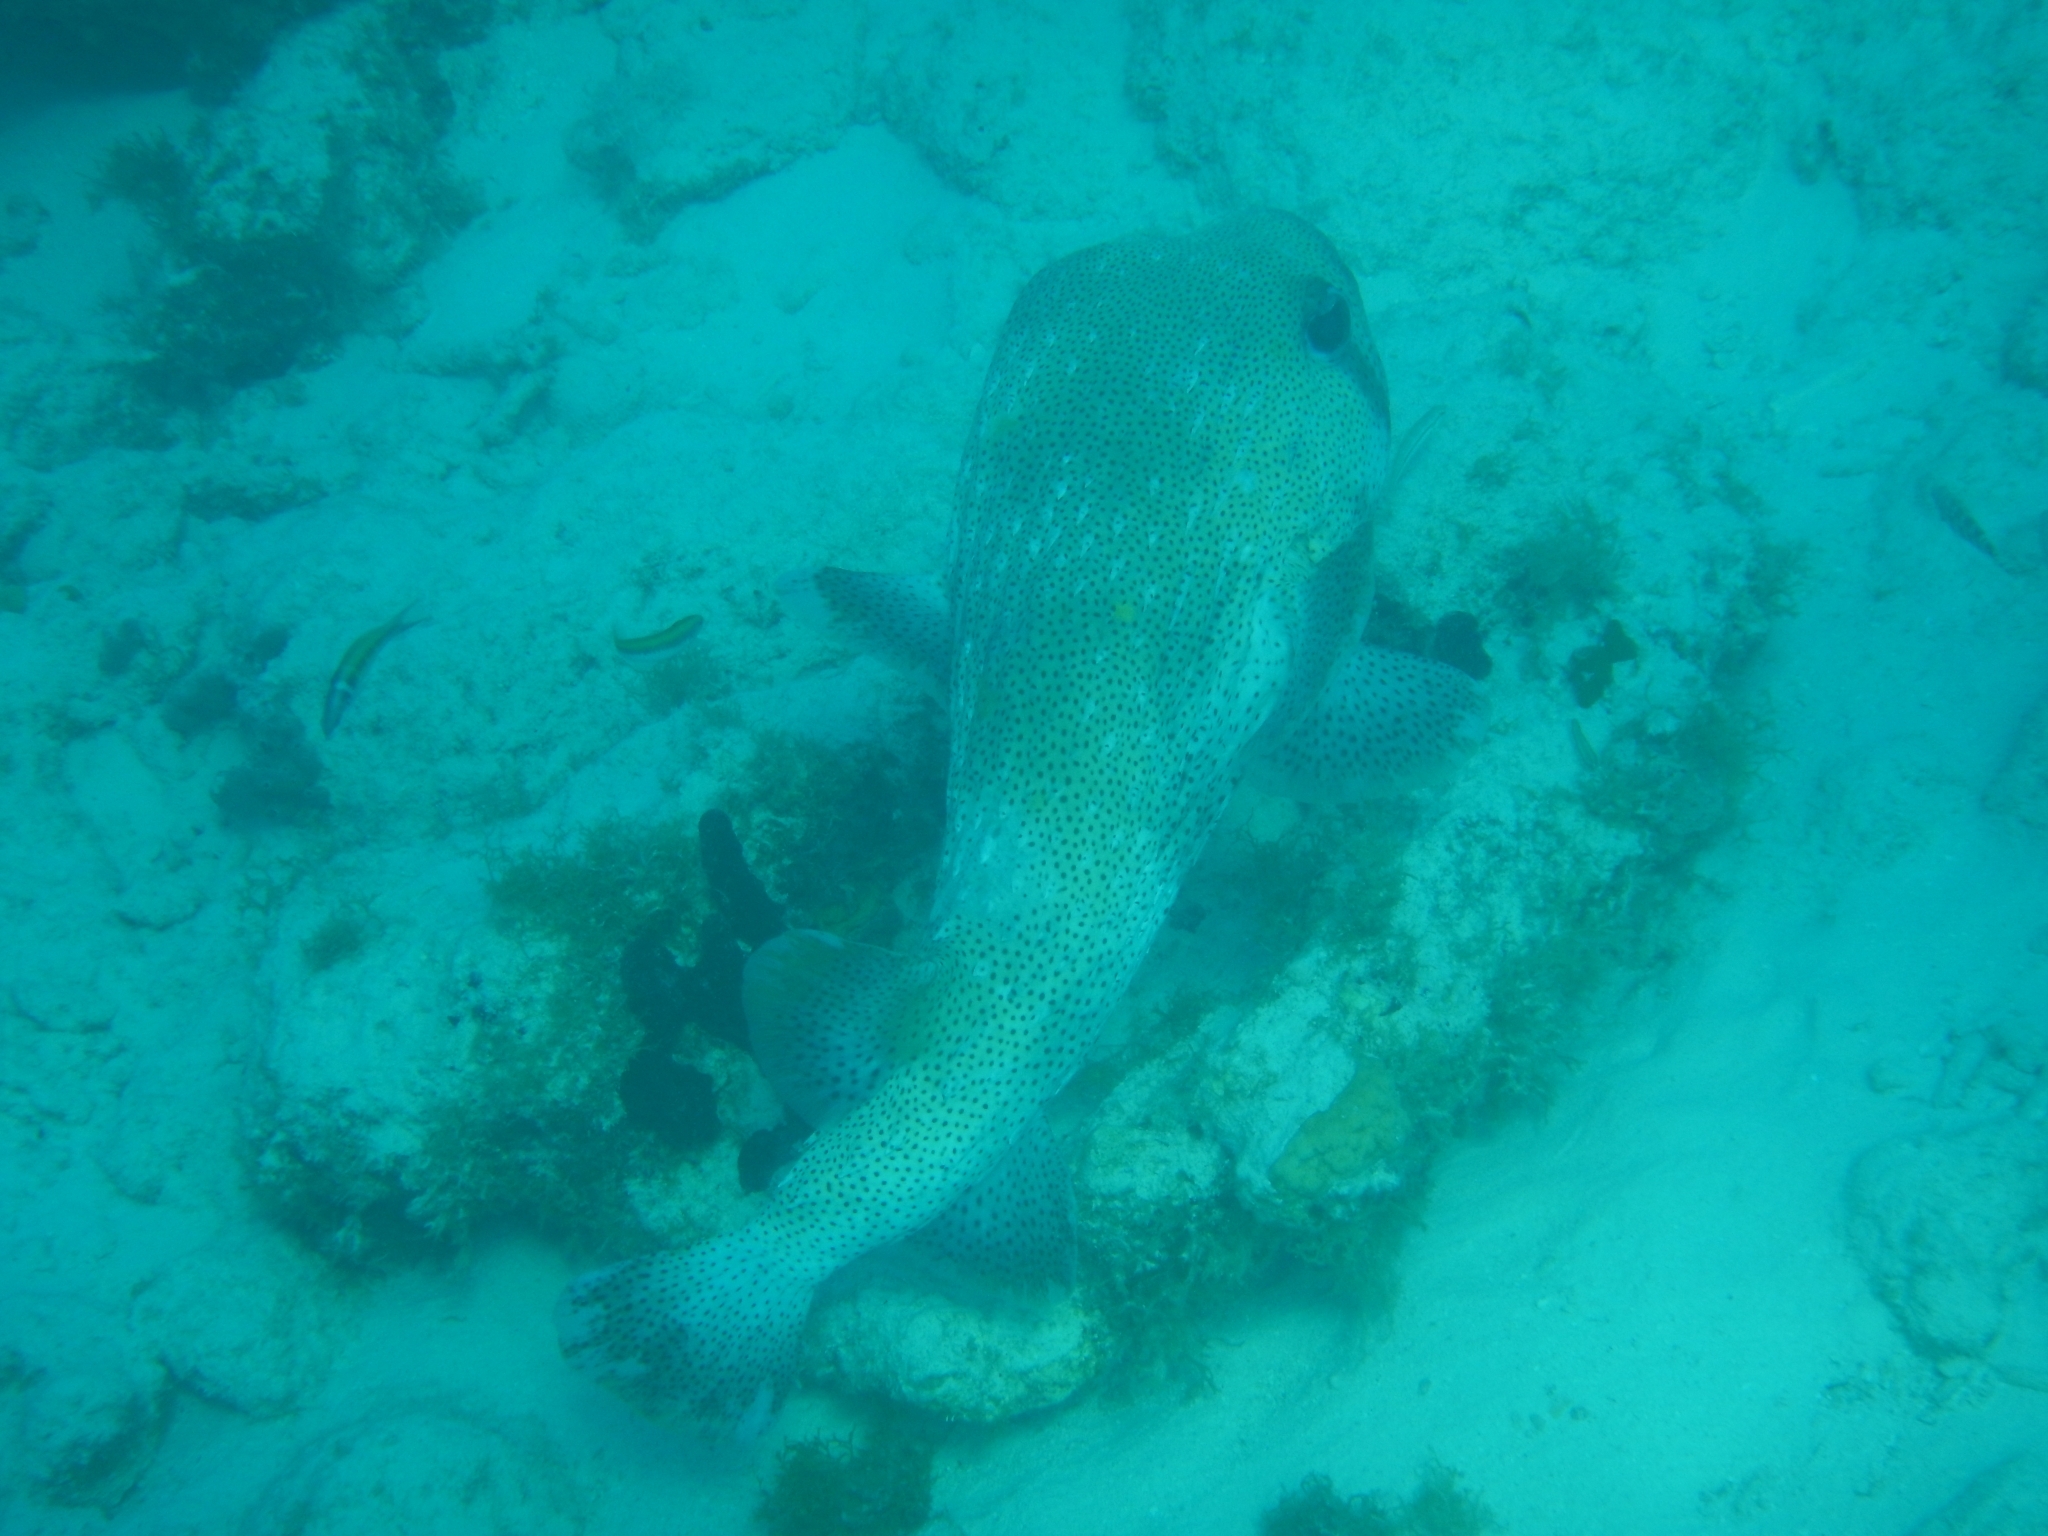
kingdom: Animalia
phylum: Chordata
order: Tetraodontiformes
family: Diodontidae
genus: Diodon
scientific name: Diodon hystrix
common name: Giant porcupinefish
